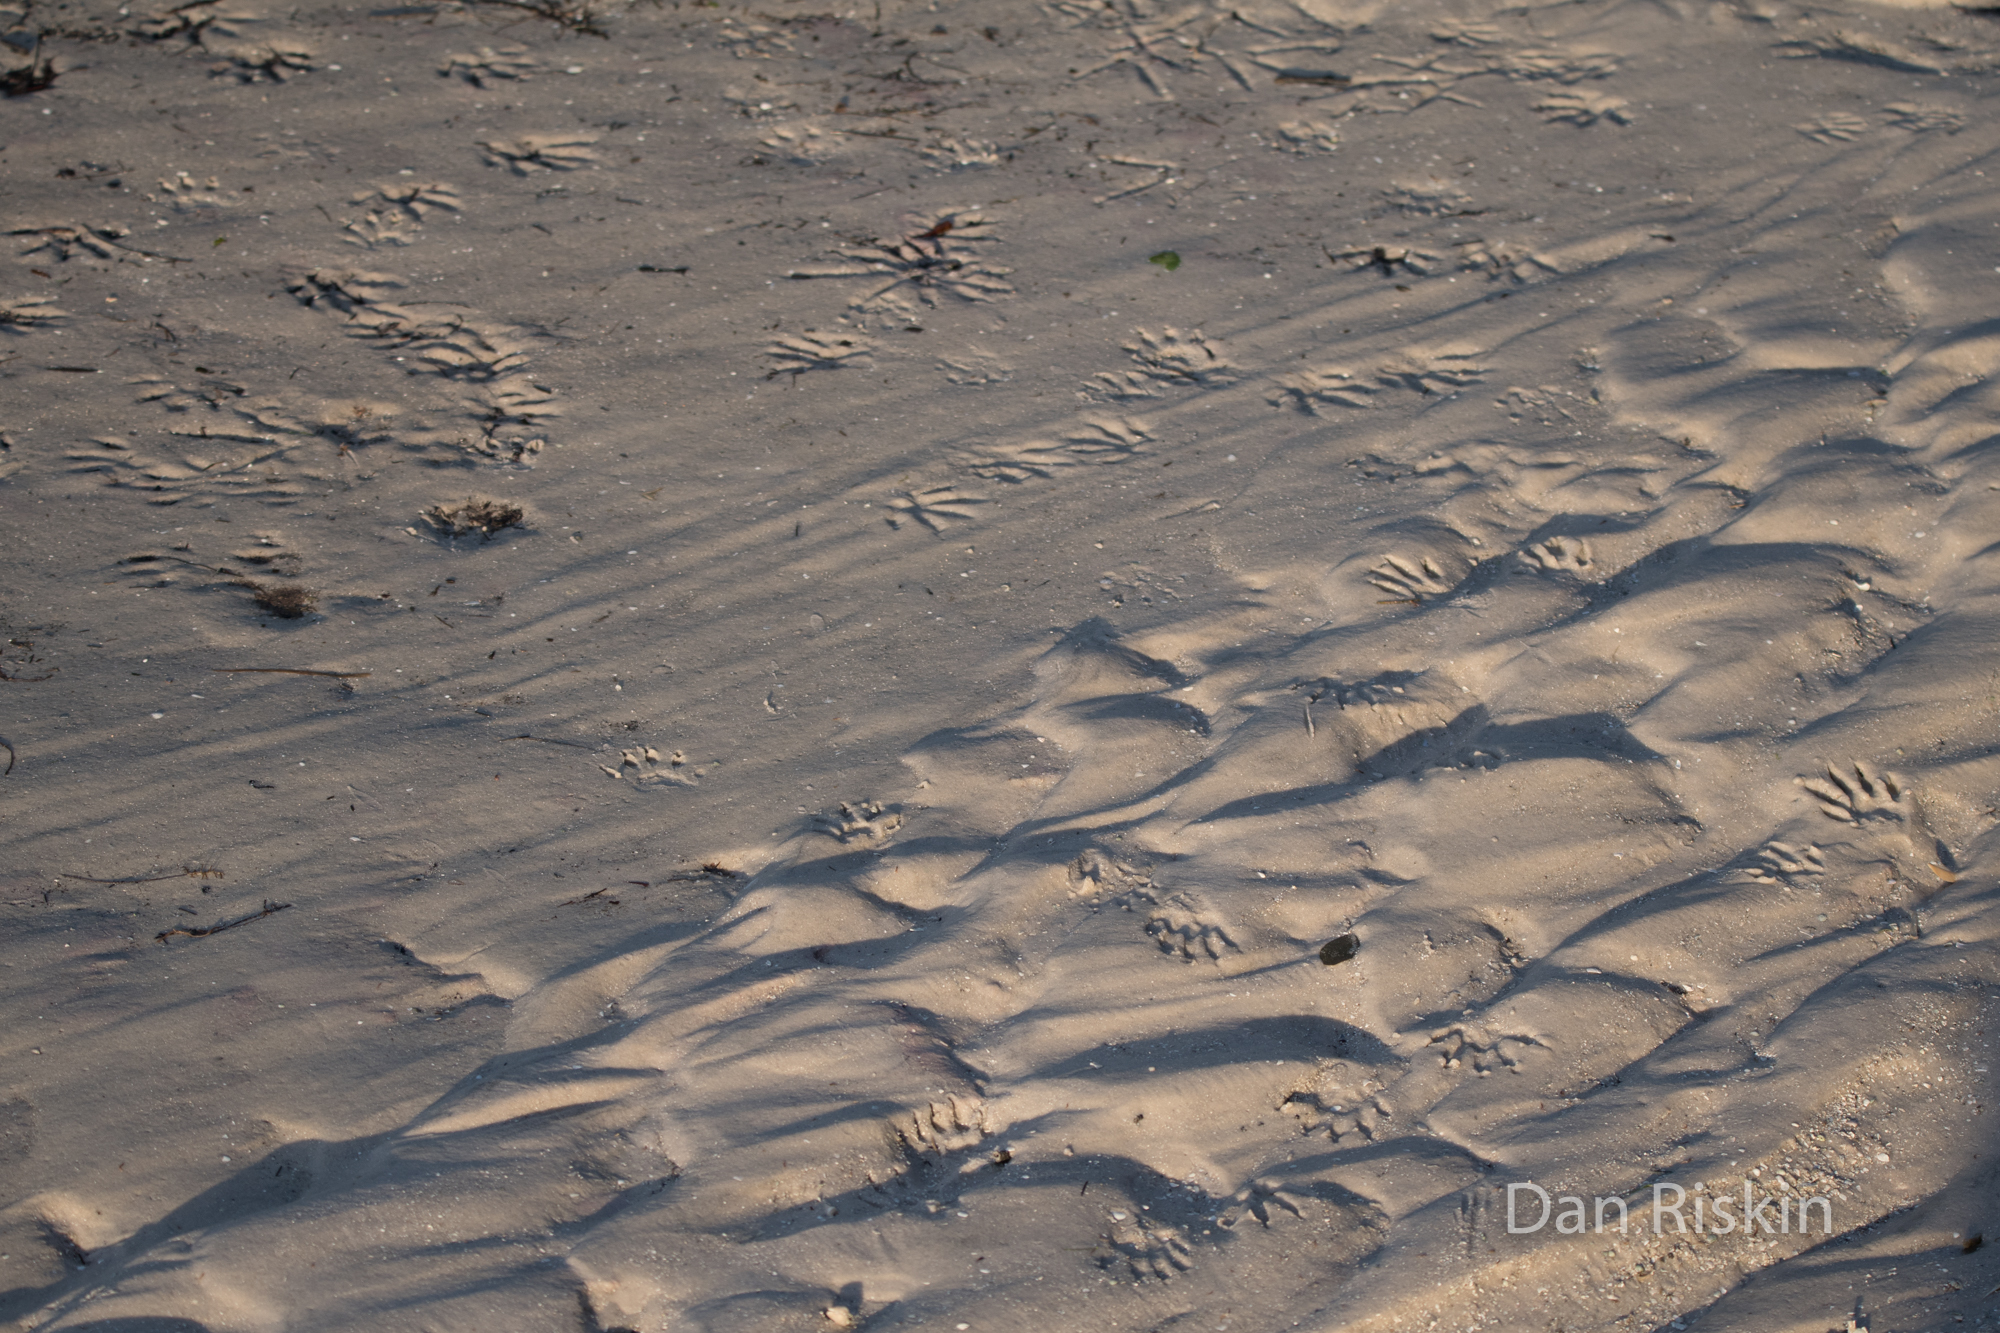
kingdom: Animalia
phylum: Chordata
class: Mammalia
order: Carnivora
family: Procyonidae
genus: Procyon
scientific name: Procyon lotor
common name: Raccoon
